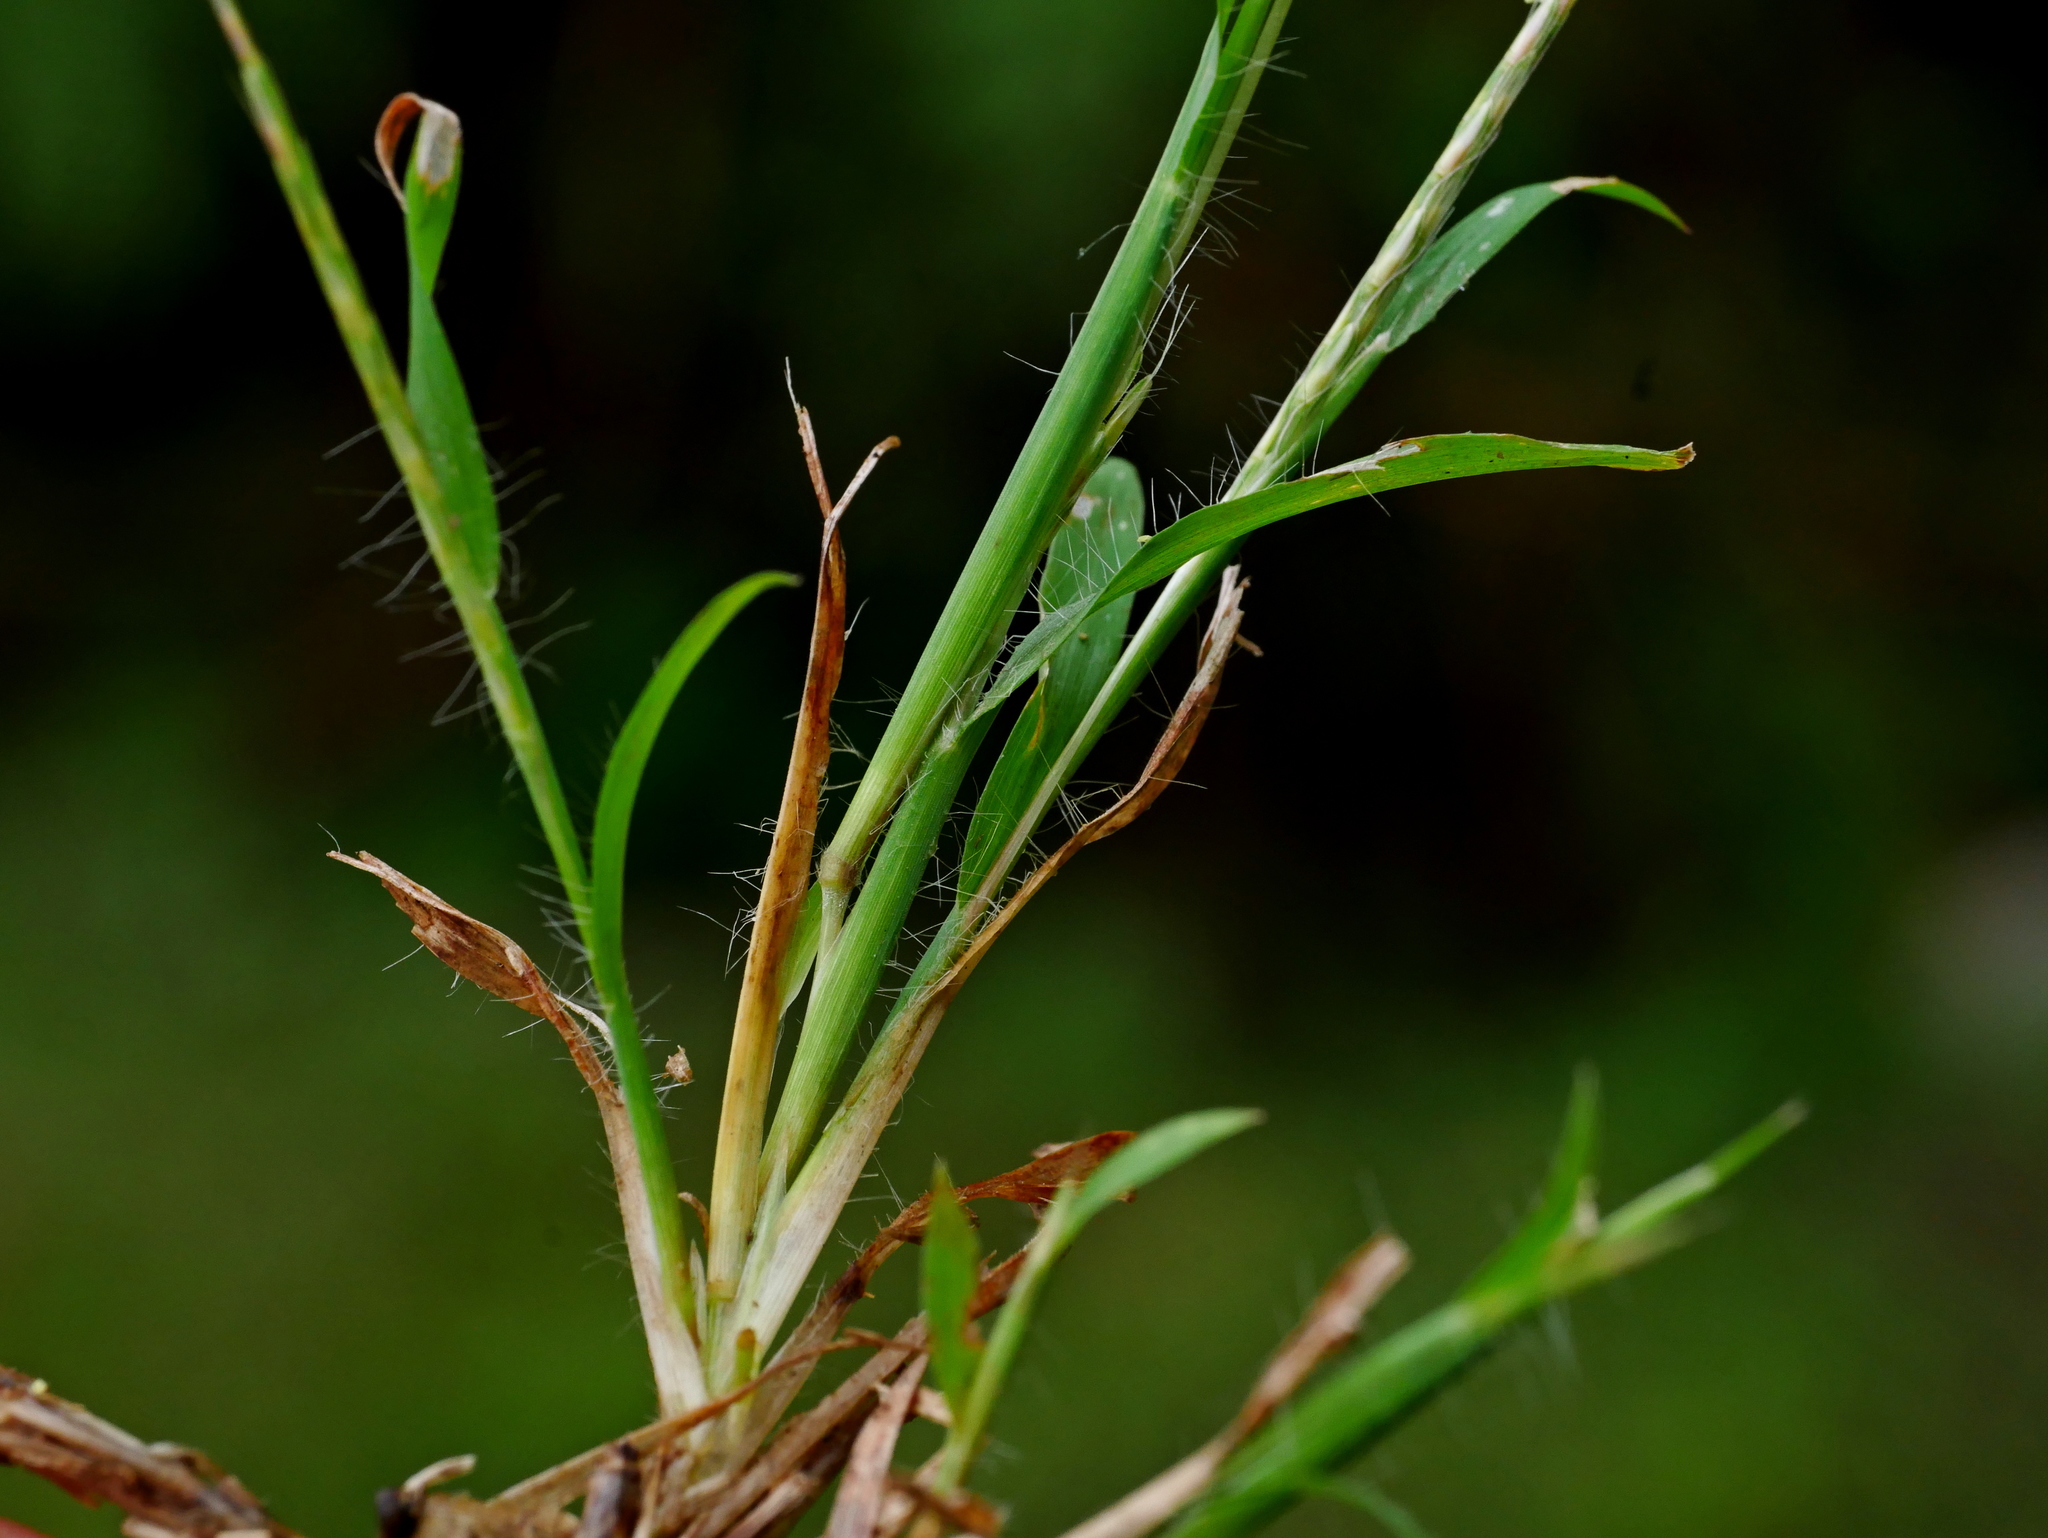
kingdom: Plantae
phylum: Tracheophyta
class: Liliopsida
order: Poales
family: Poaceae
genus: Dimeria
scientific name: Dimeria ornithopoda
